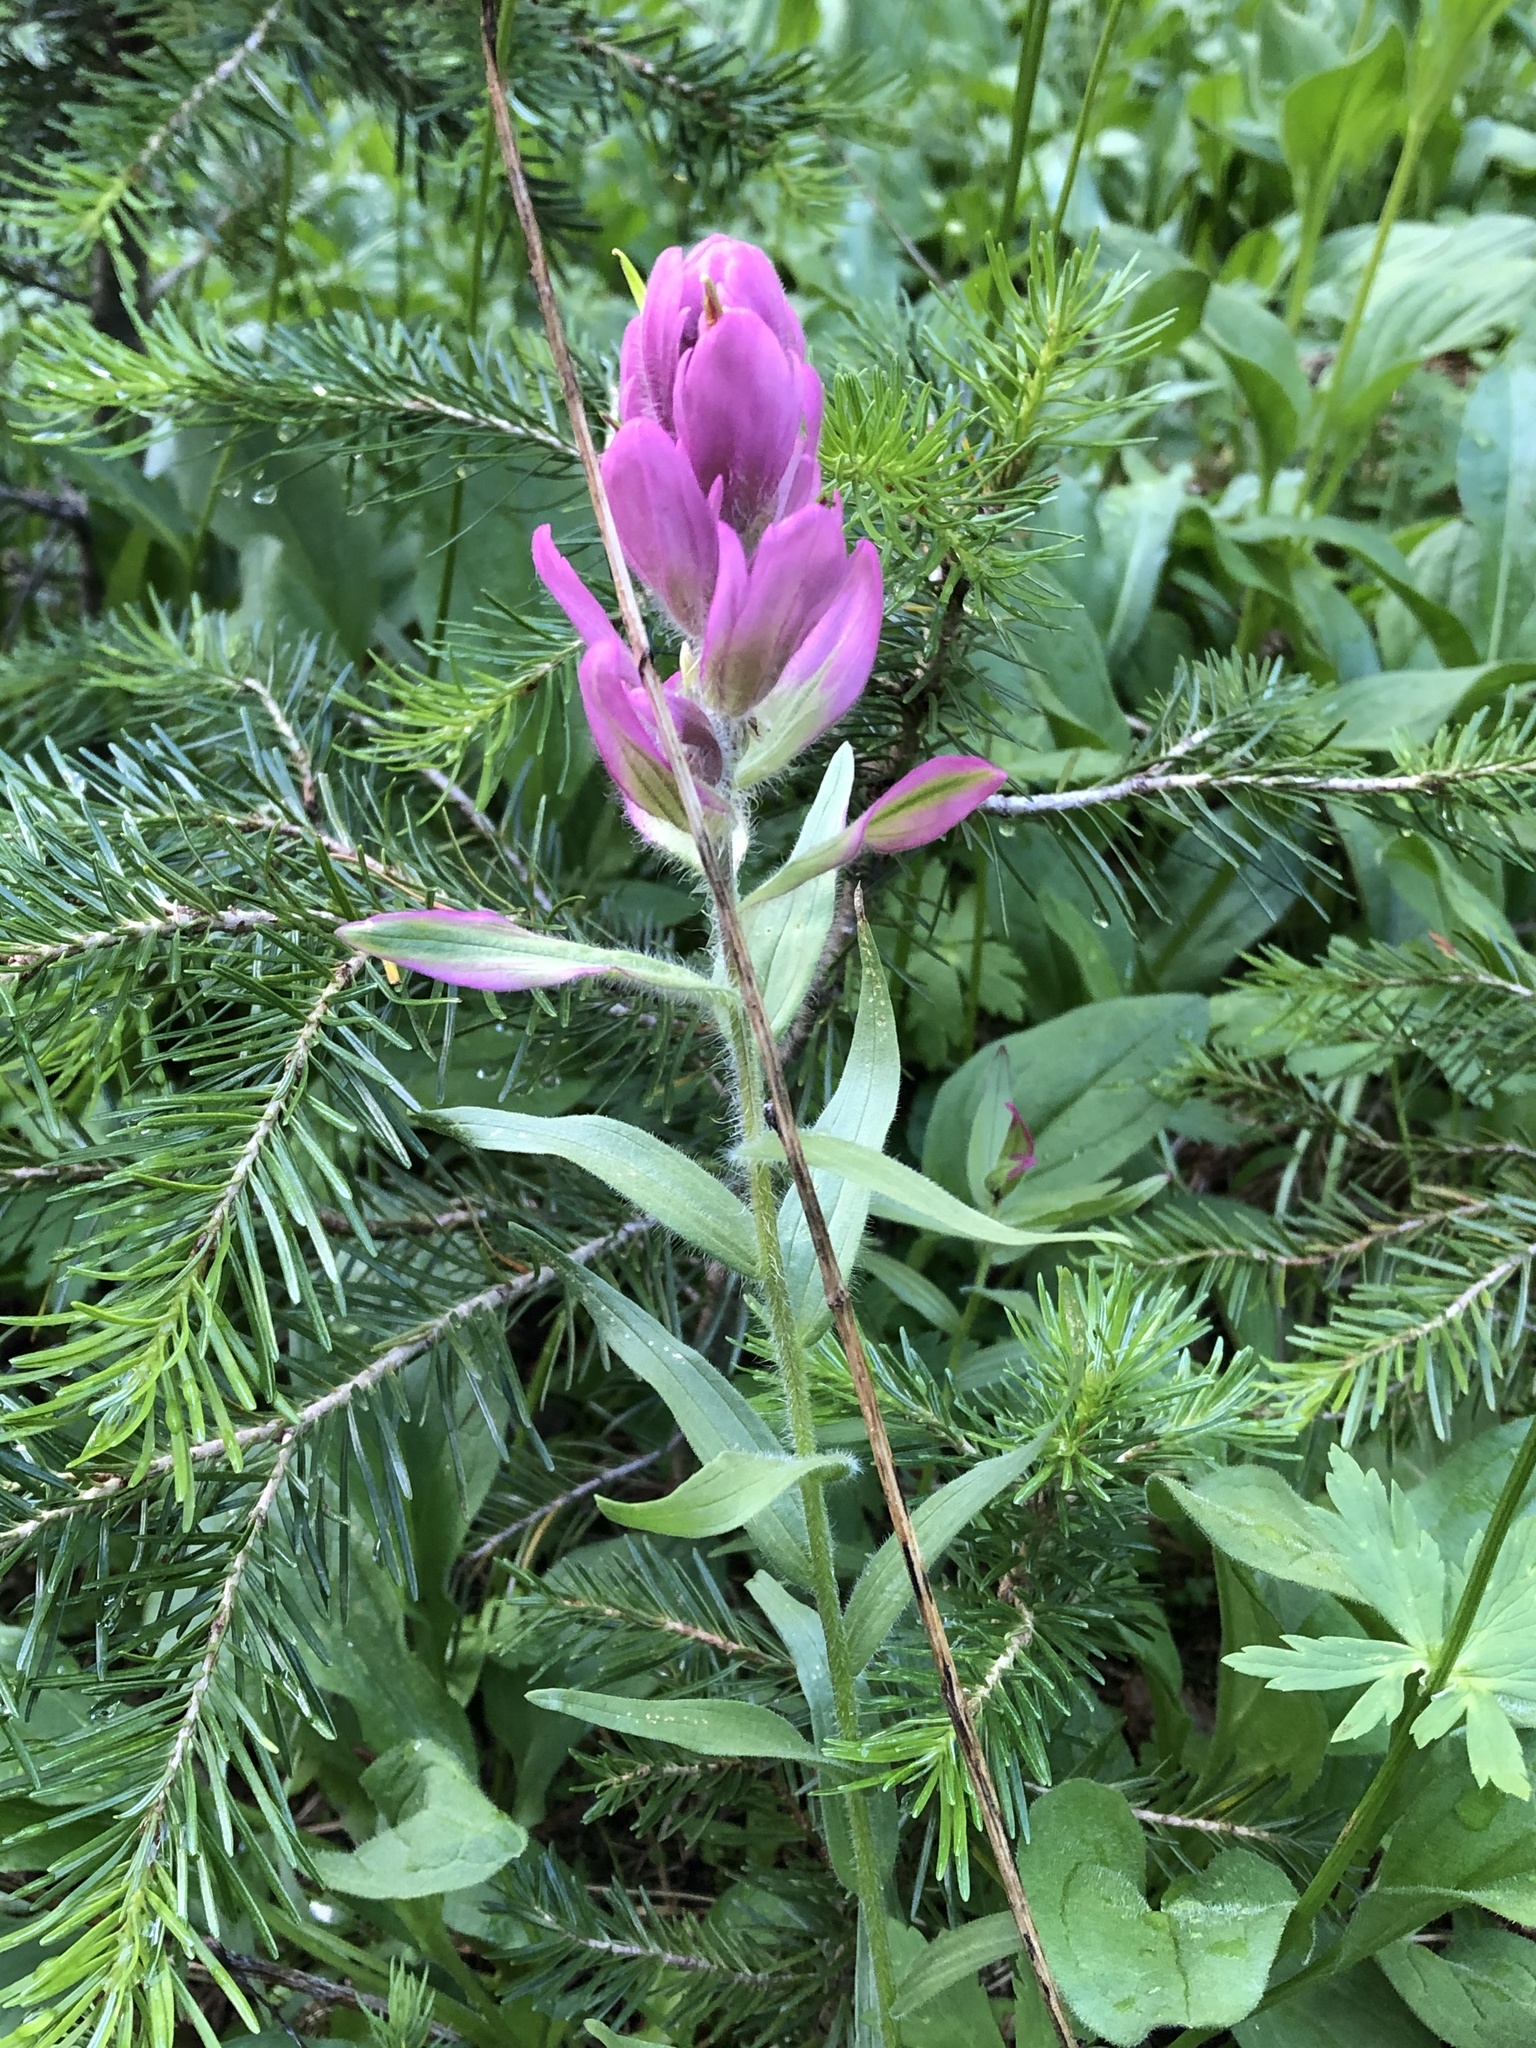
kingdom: Plantae
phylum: Tracheophyta
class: Magnoliopsida
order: Lamiales
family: Orobanchaceae
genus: Castilleja
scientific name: Castilleja rhexifolia
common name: Rocky mountain paintbrush
